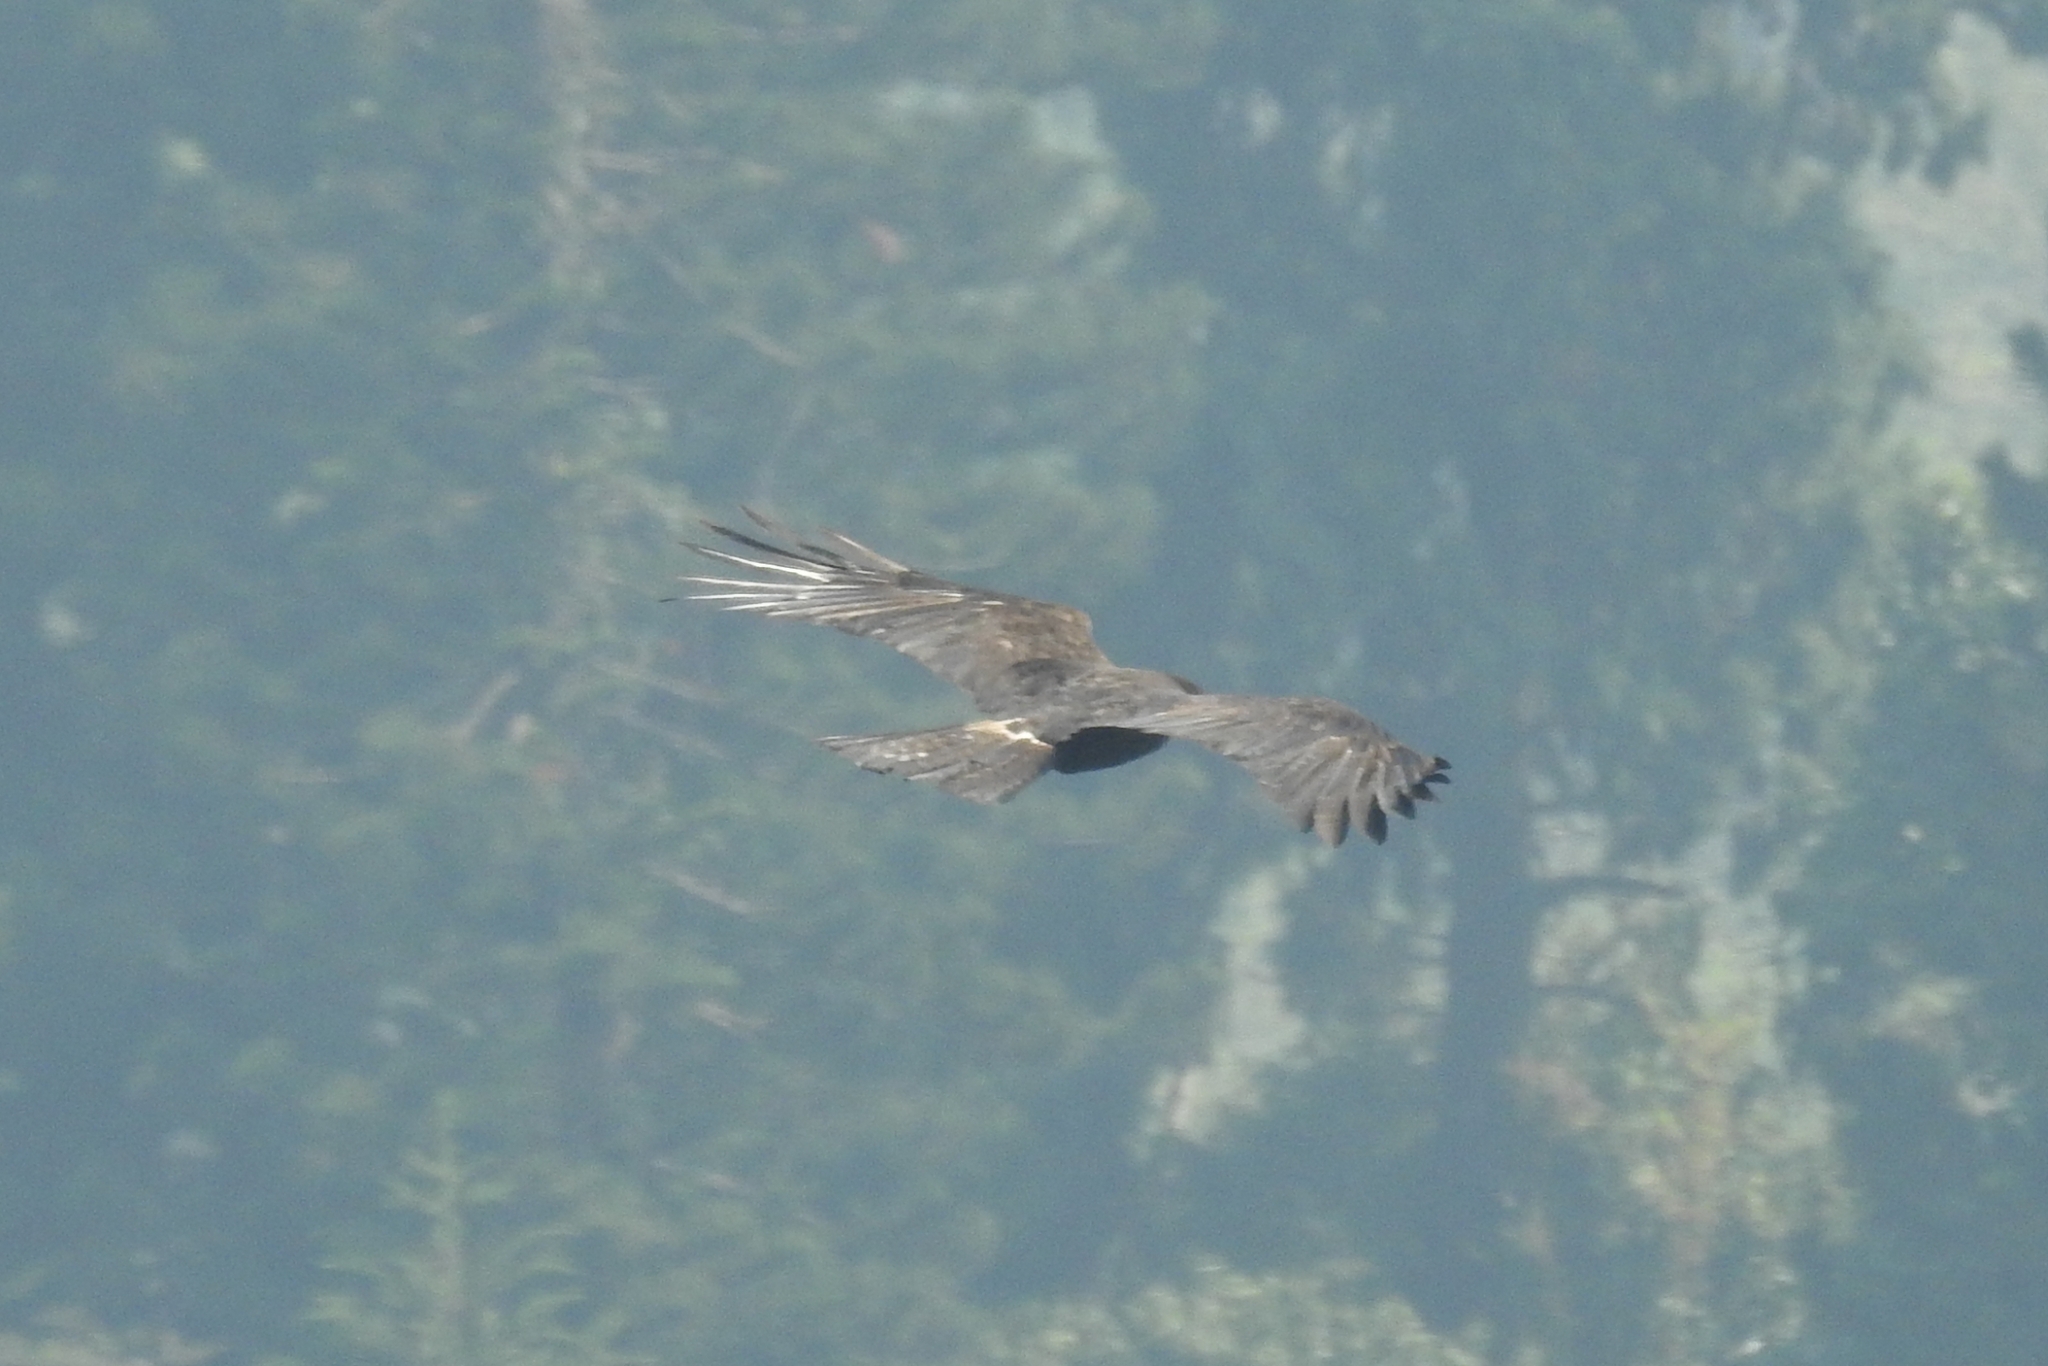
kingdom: Animalia
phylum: Chordata
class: Aves
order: Accipitriformes
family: Accipitridae
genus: Ictinaetus
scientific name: Ictinaetus malayensis
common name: Black eagle
